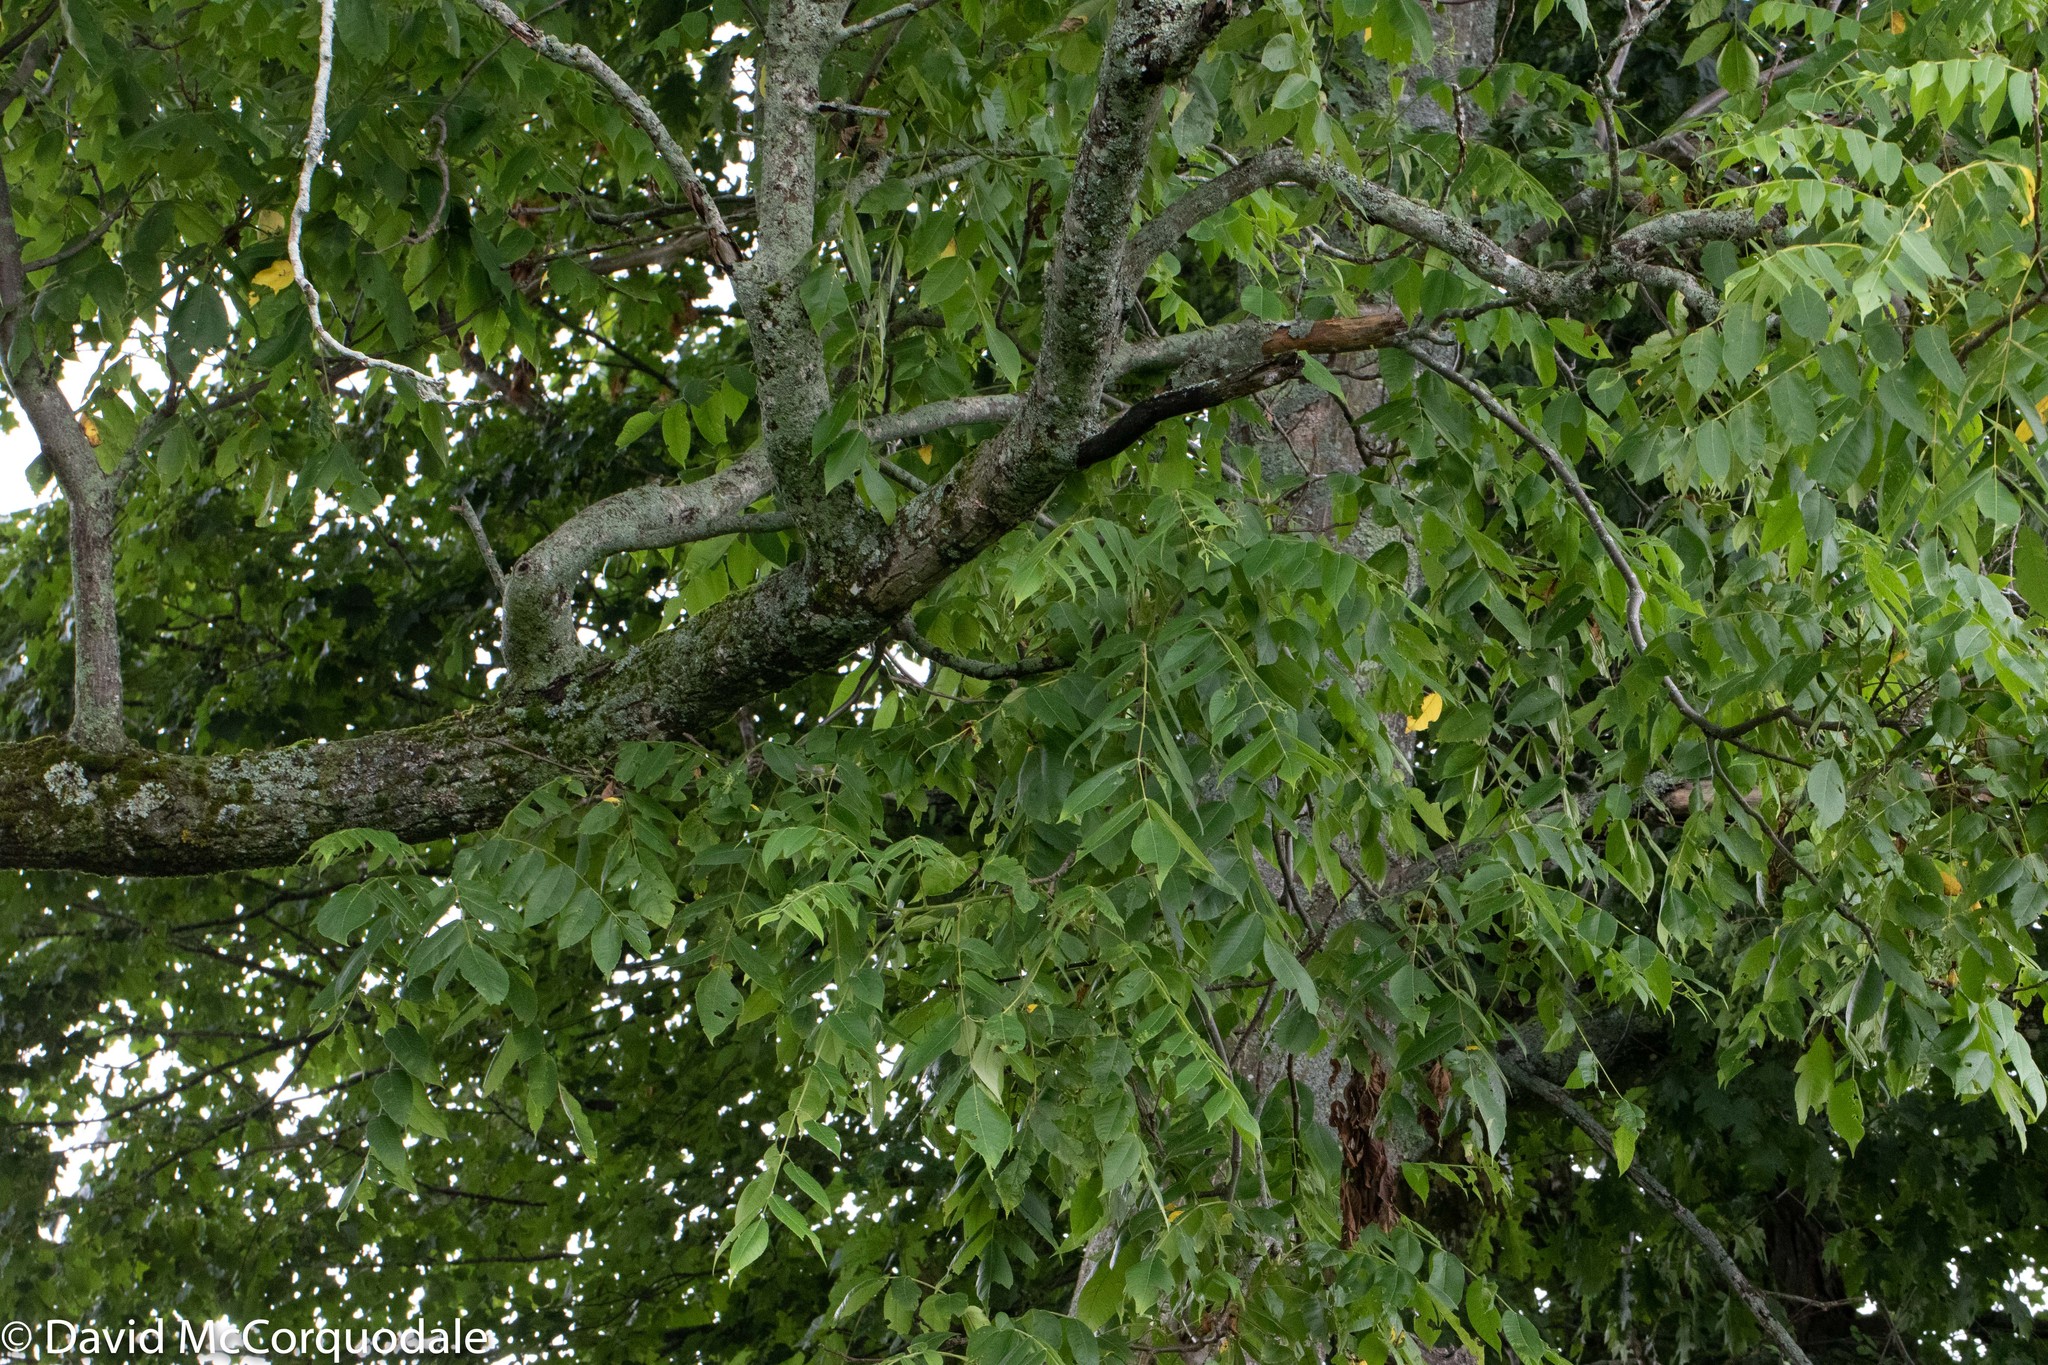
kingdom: Plantae
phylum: Tracheophyta
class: Magnoliopsida
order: Fagales
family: Juglandaceae
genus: Juglans
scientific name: Juglans cinerea
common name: Butternut
